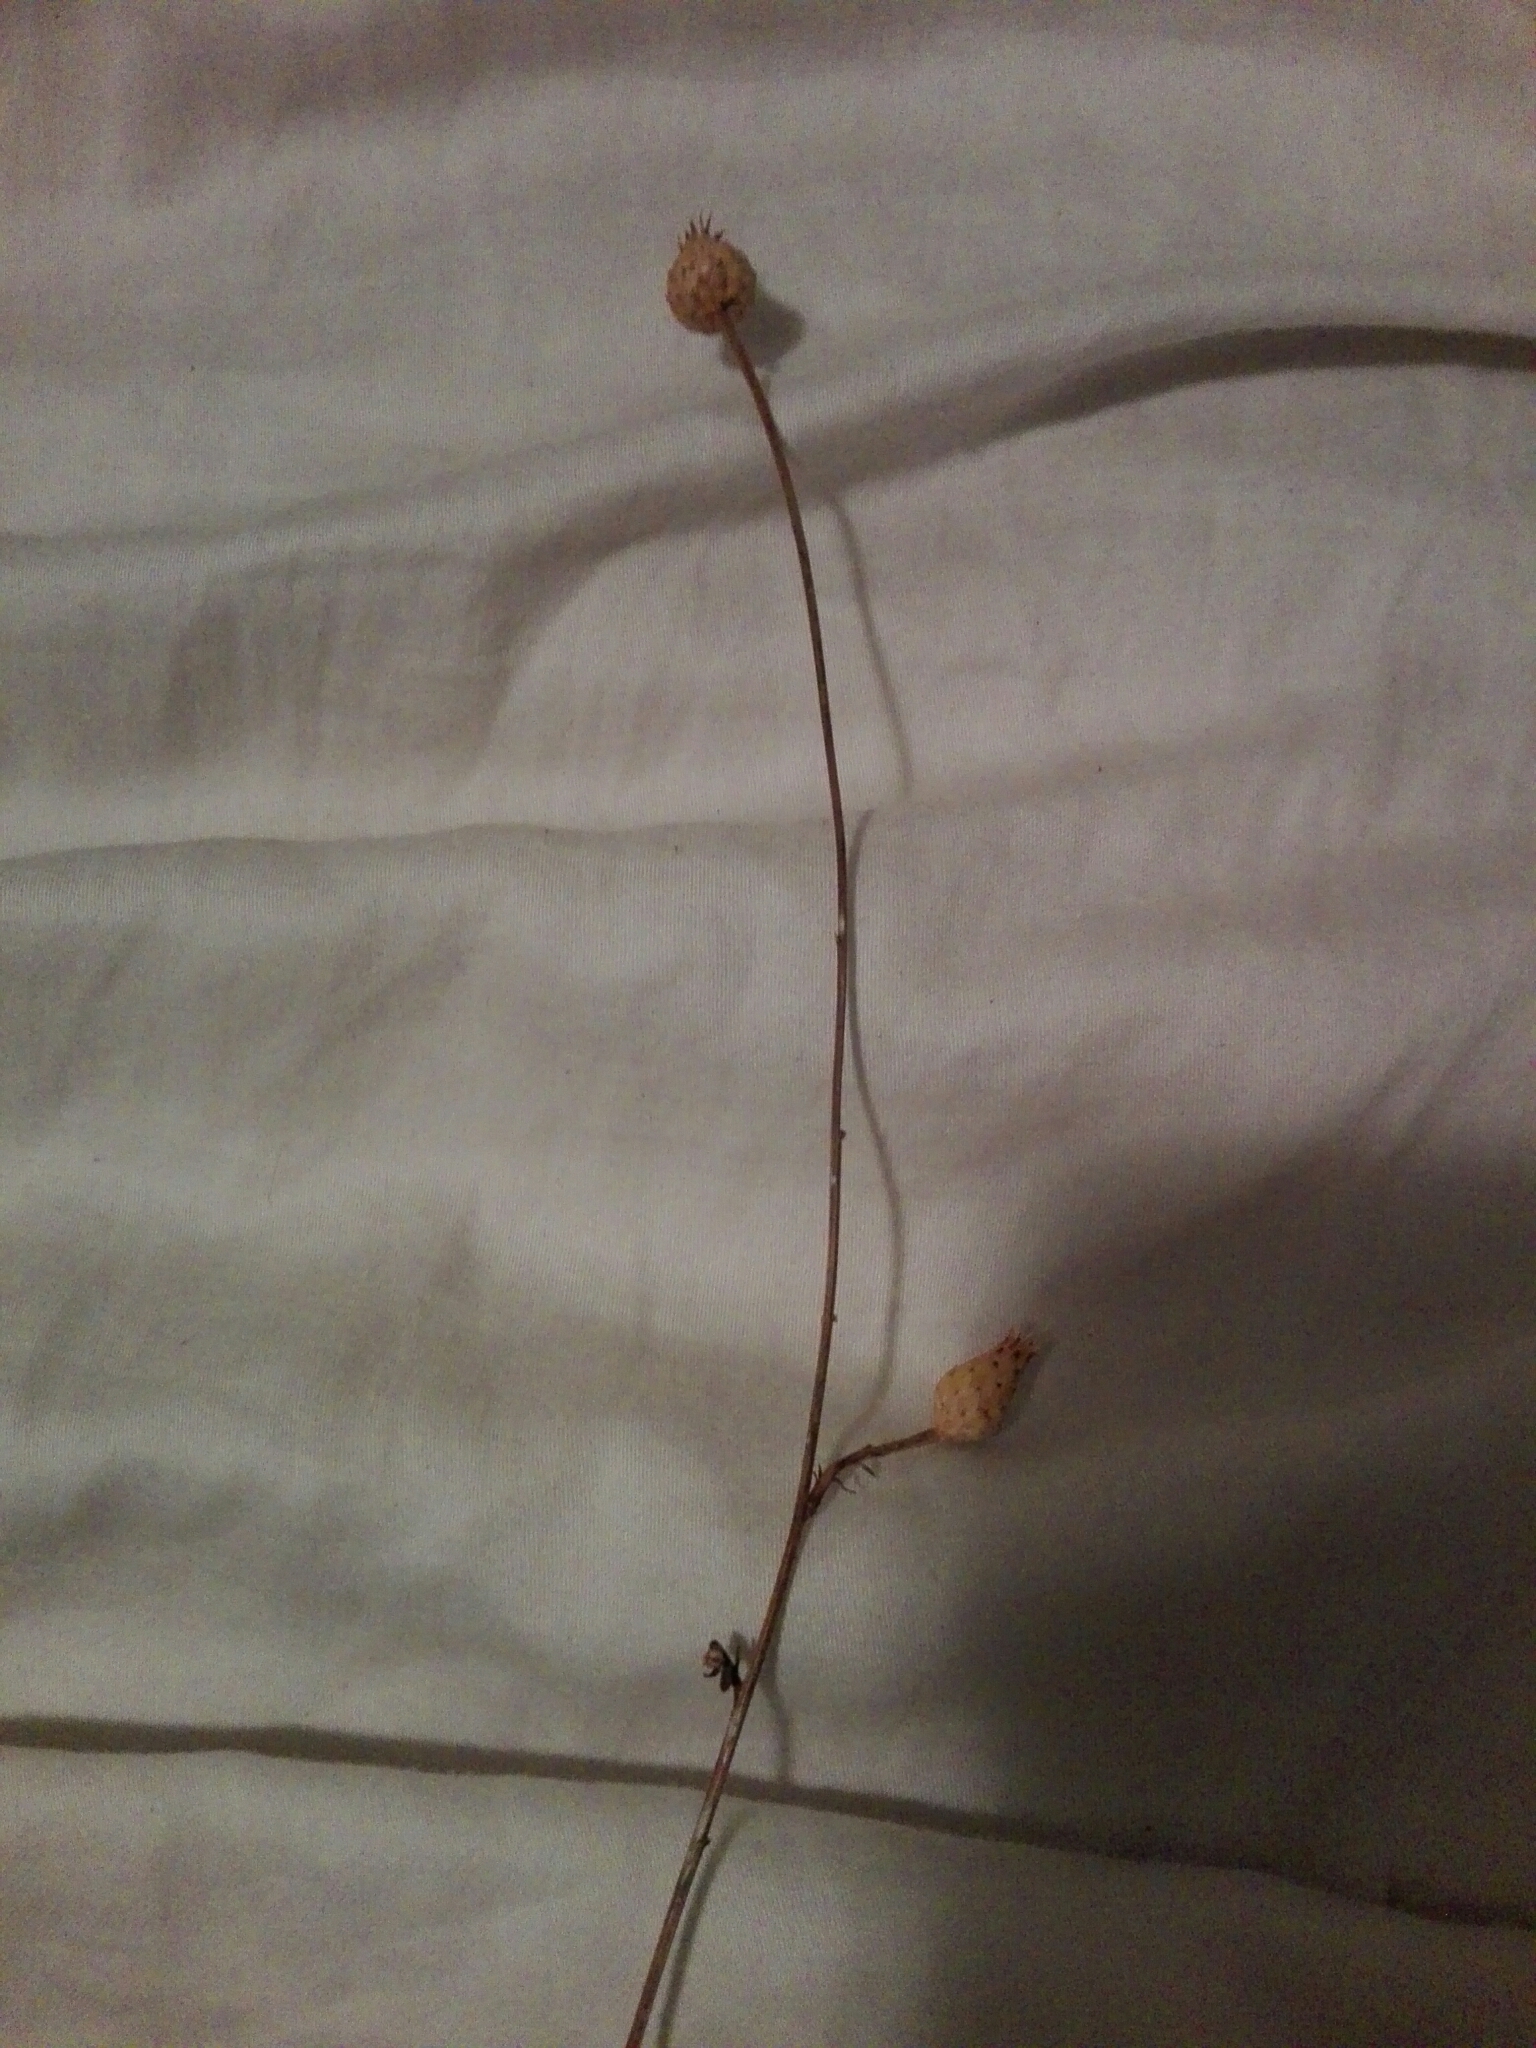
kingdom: Plantae
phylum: Tracheophyta
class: Magnoliopsida
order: Asterales
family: Asteraceae
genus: Mantisalca
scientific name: Mantisalca salmantica
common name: Dagger flower
